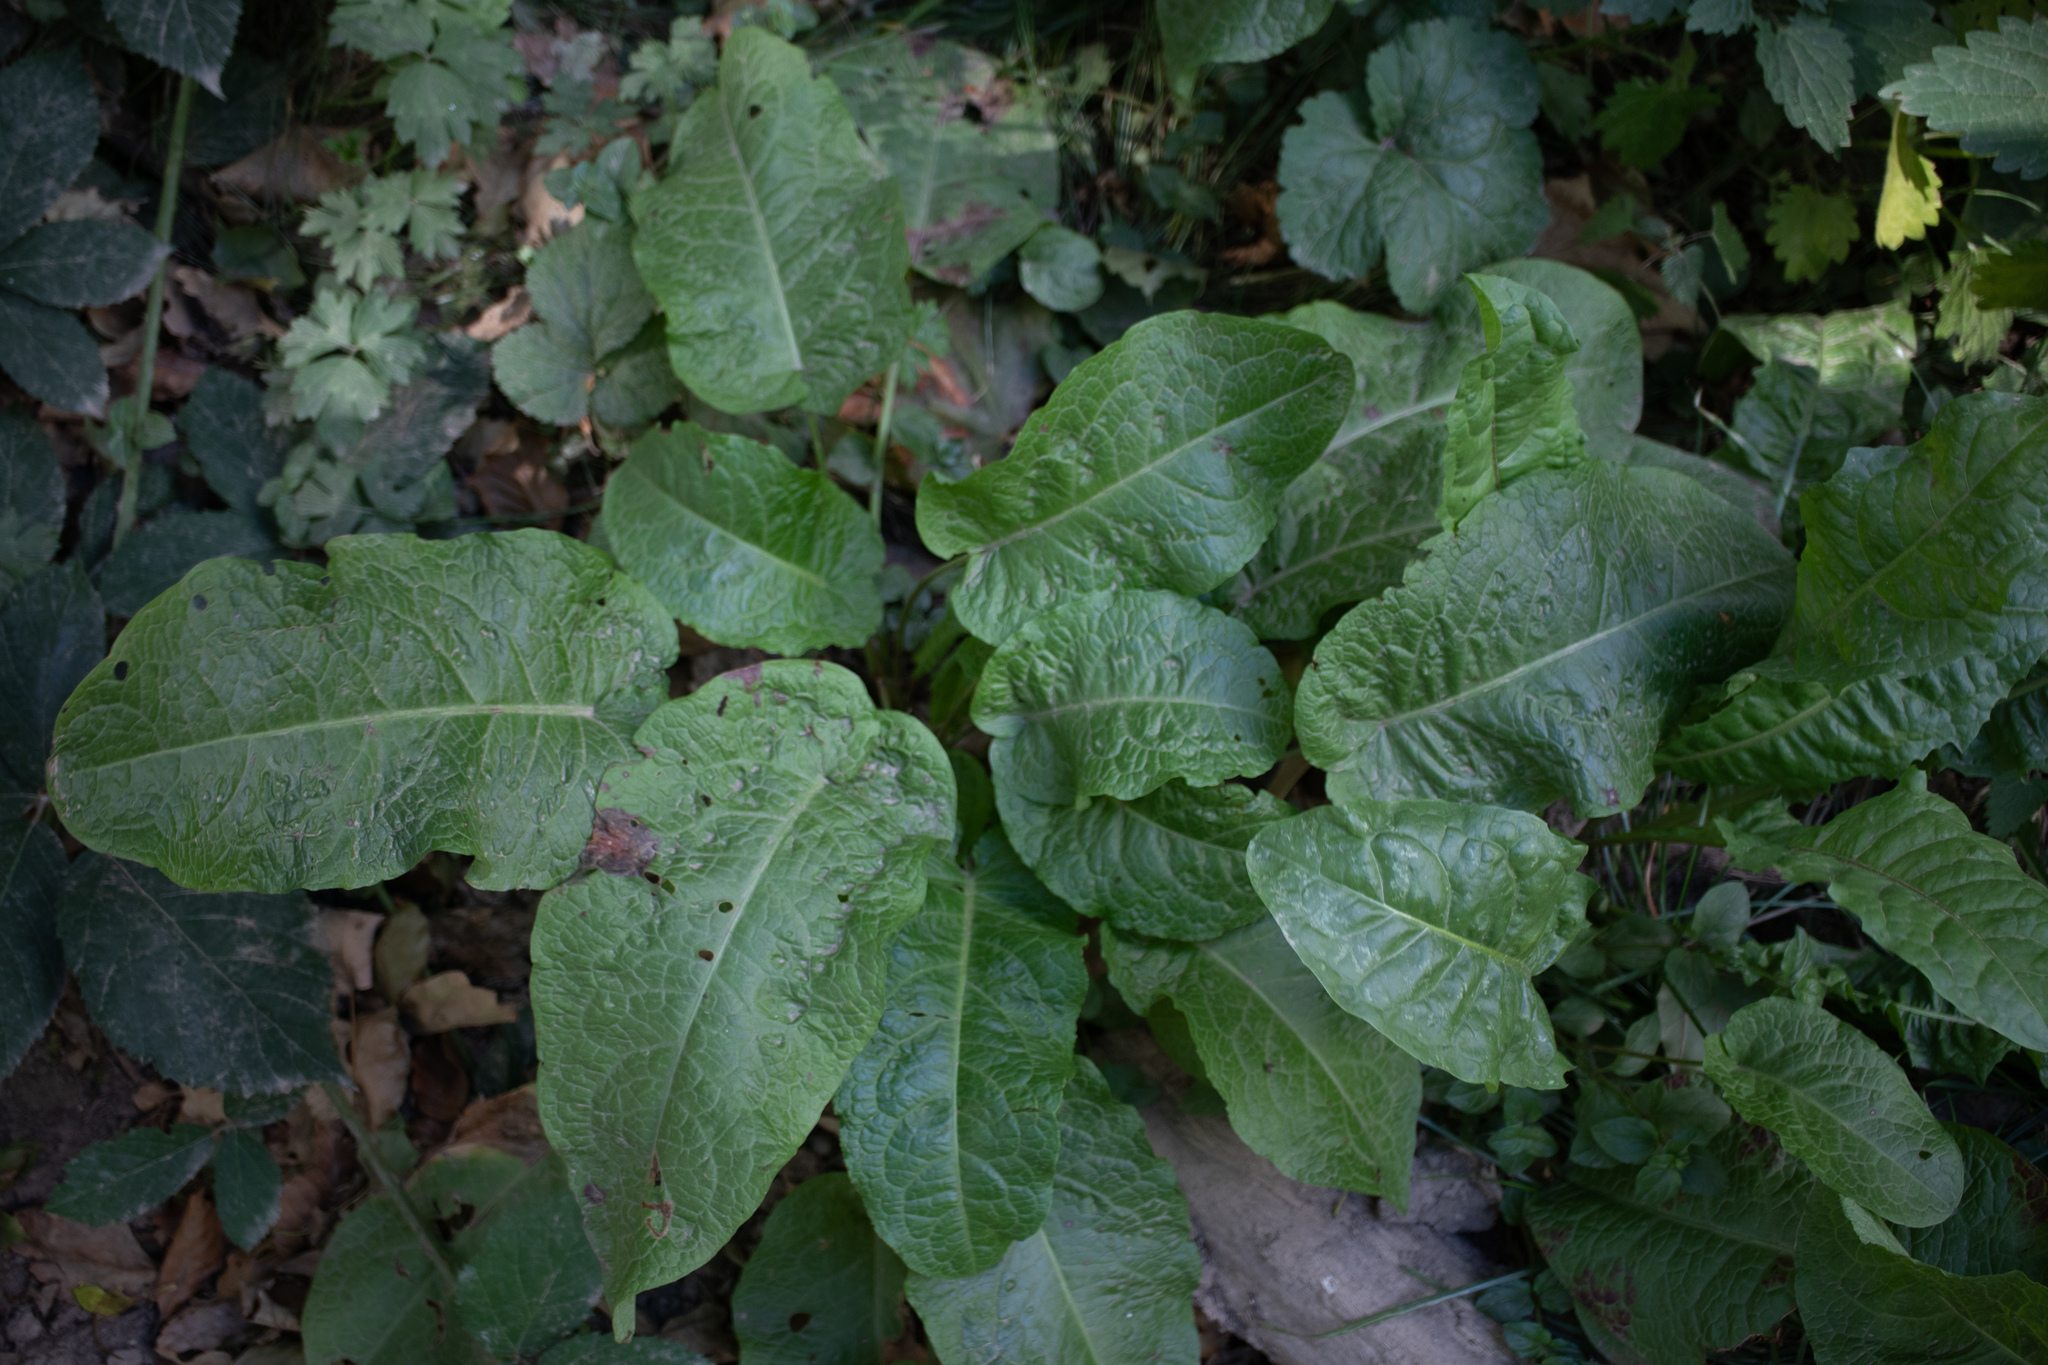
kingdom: Plantae
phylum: Tracheophyta
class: Magnoliopsida
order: Caryophyllales
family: Polygonaceae
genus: Rumex
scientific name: Rumex obtusifolius
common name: Bitter dock
